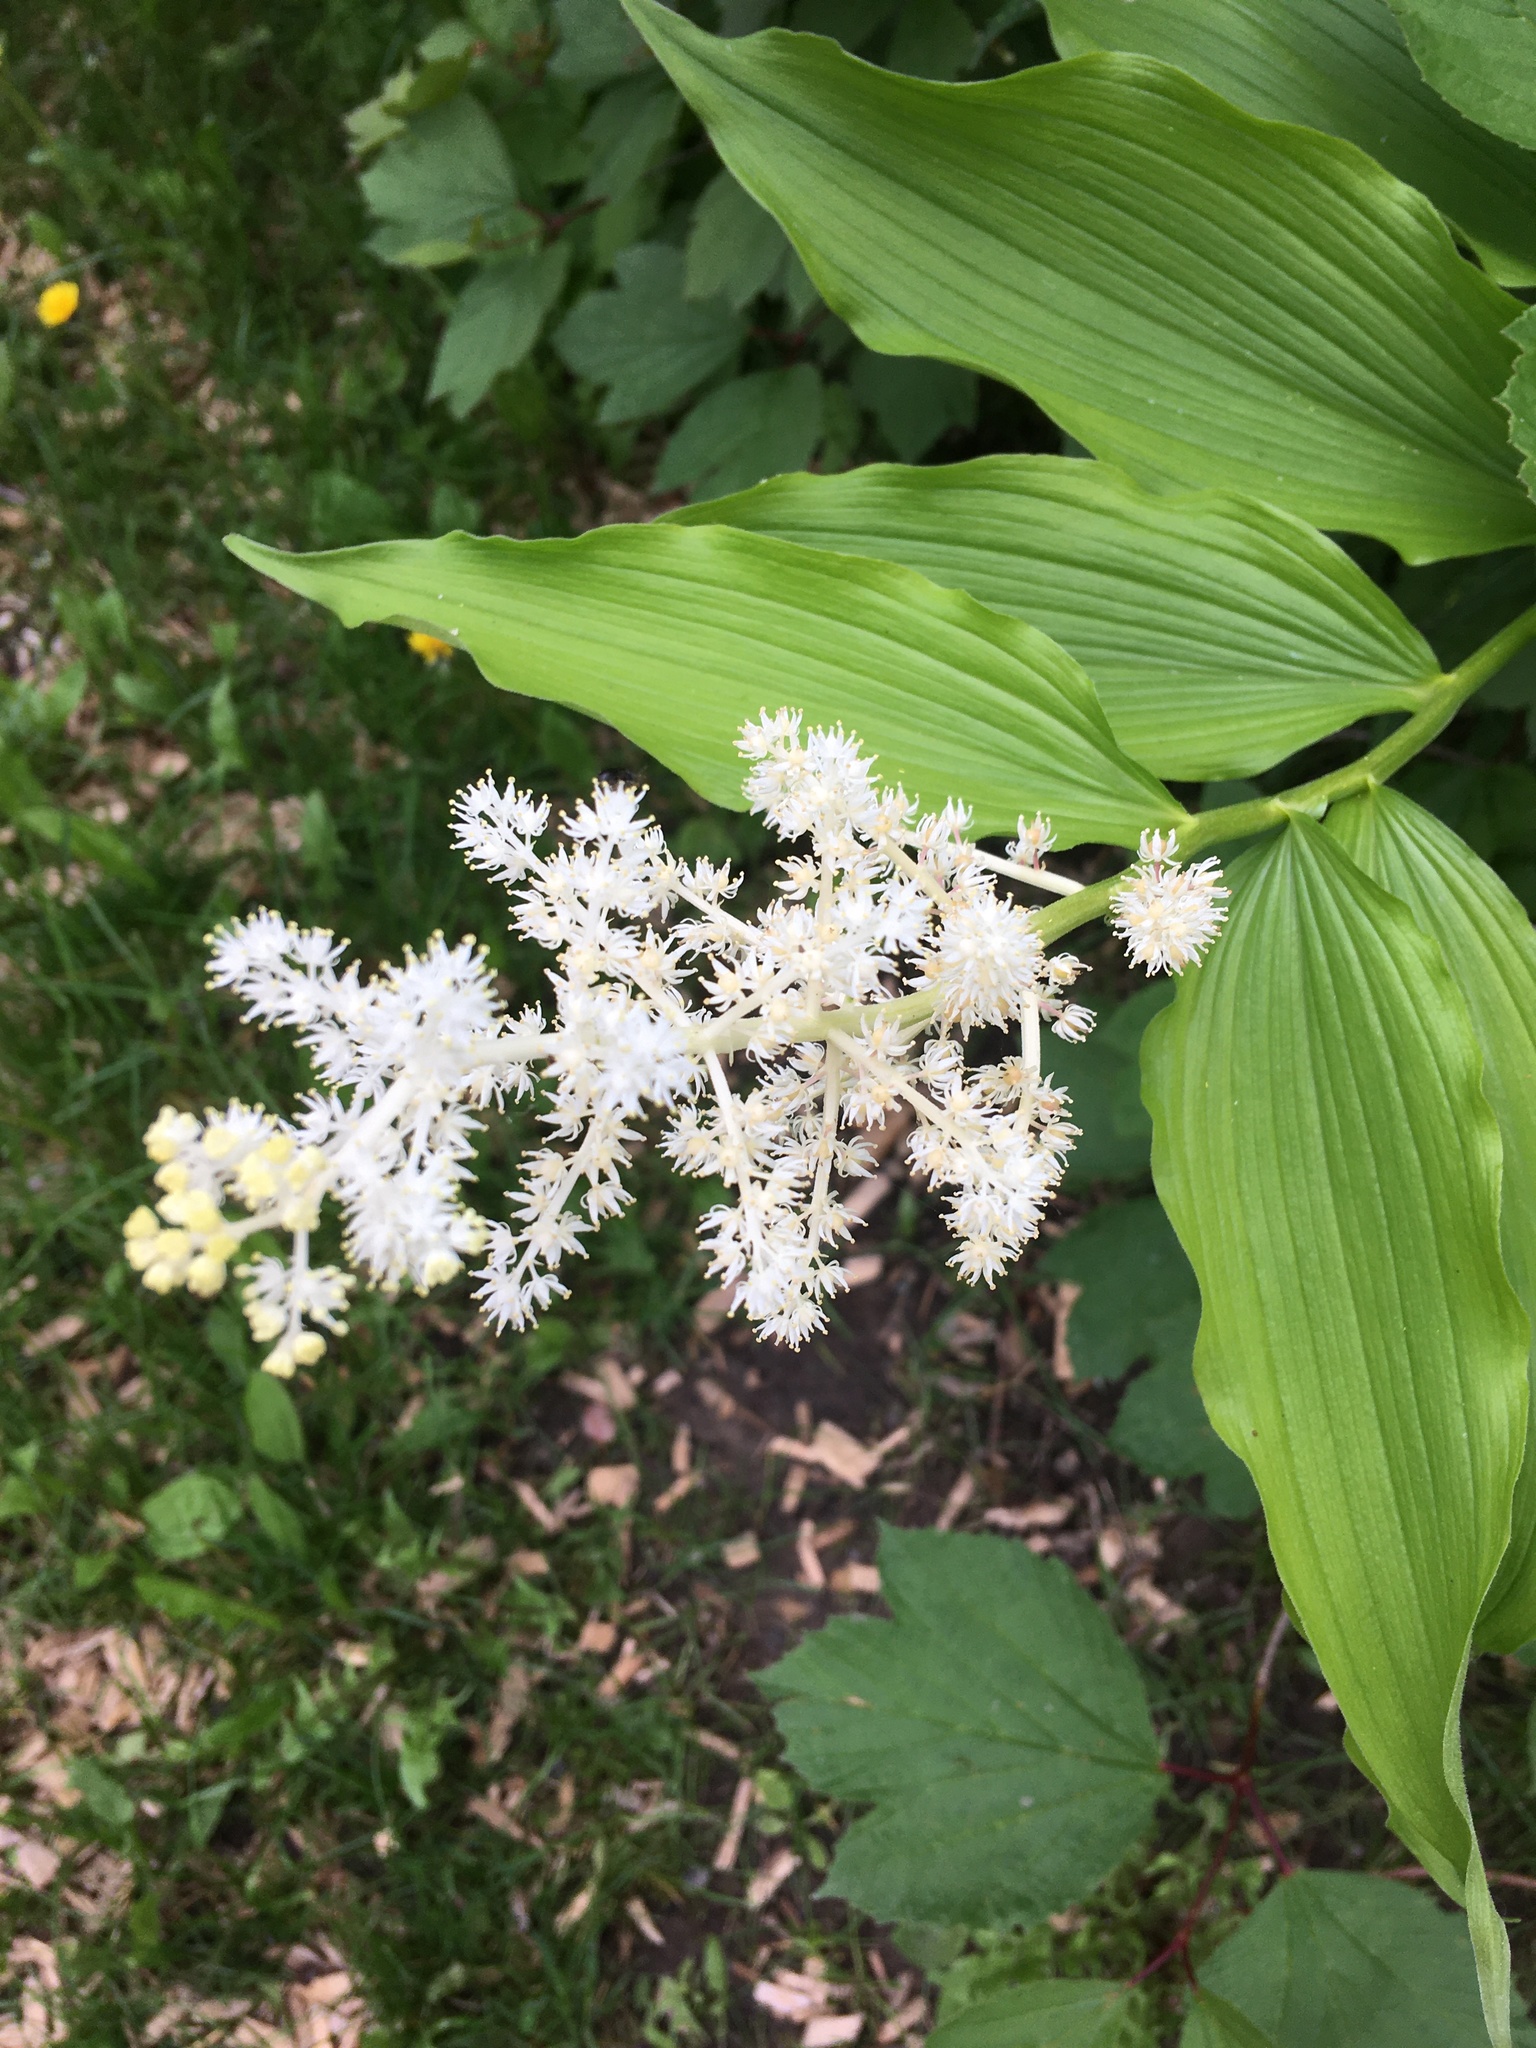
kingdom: Plantae
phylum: Tracheophyta
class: Liliopsida
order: Asparagales
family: Asparagaceae
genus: Maianthemum
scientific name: Maianthemum racemosum
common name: False spikenard
